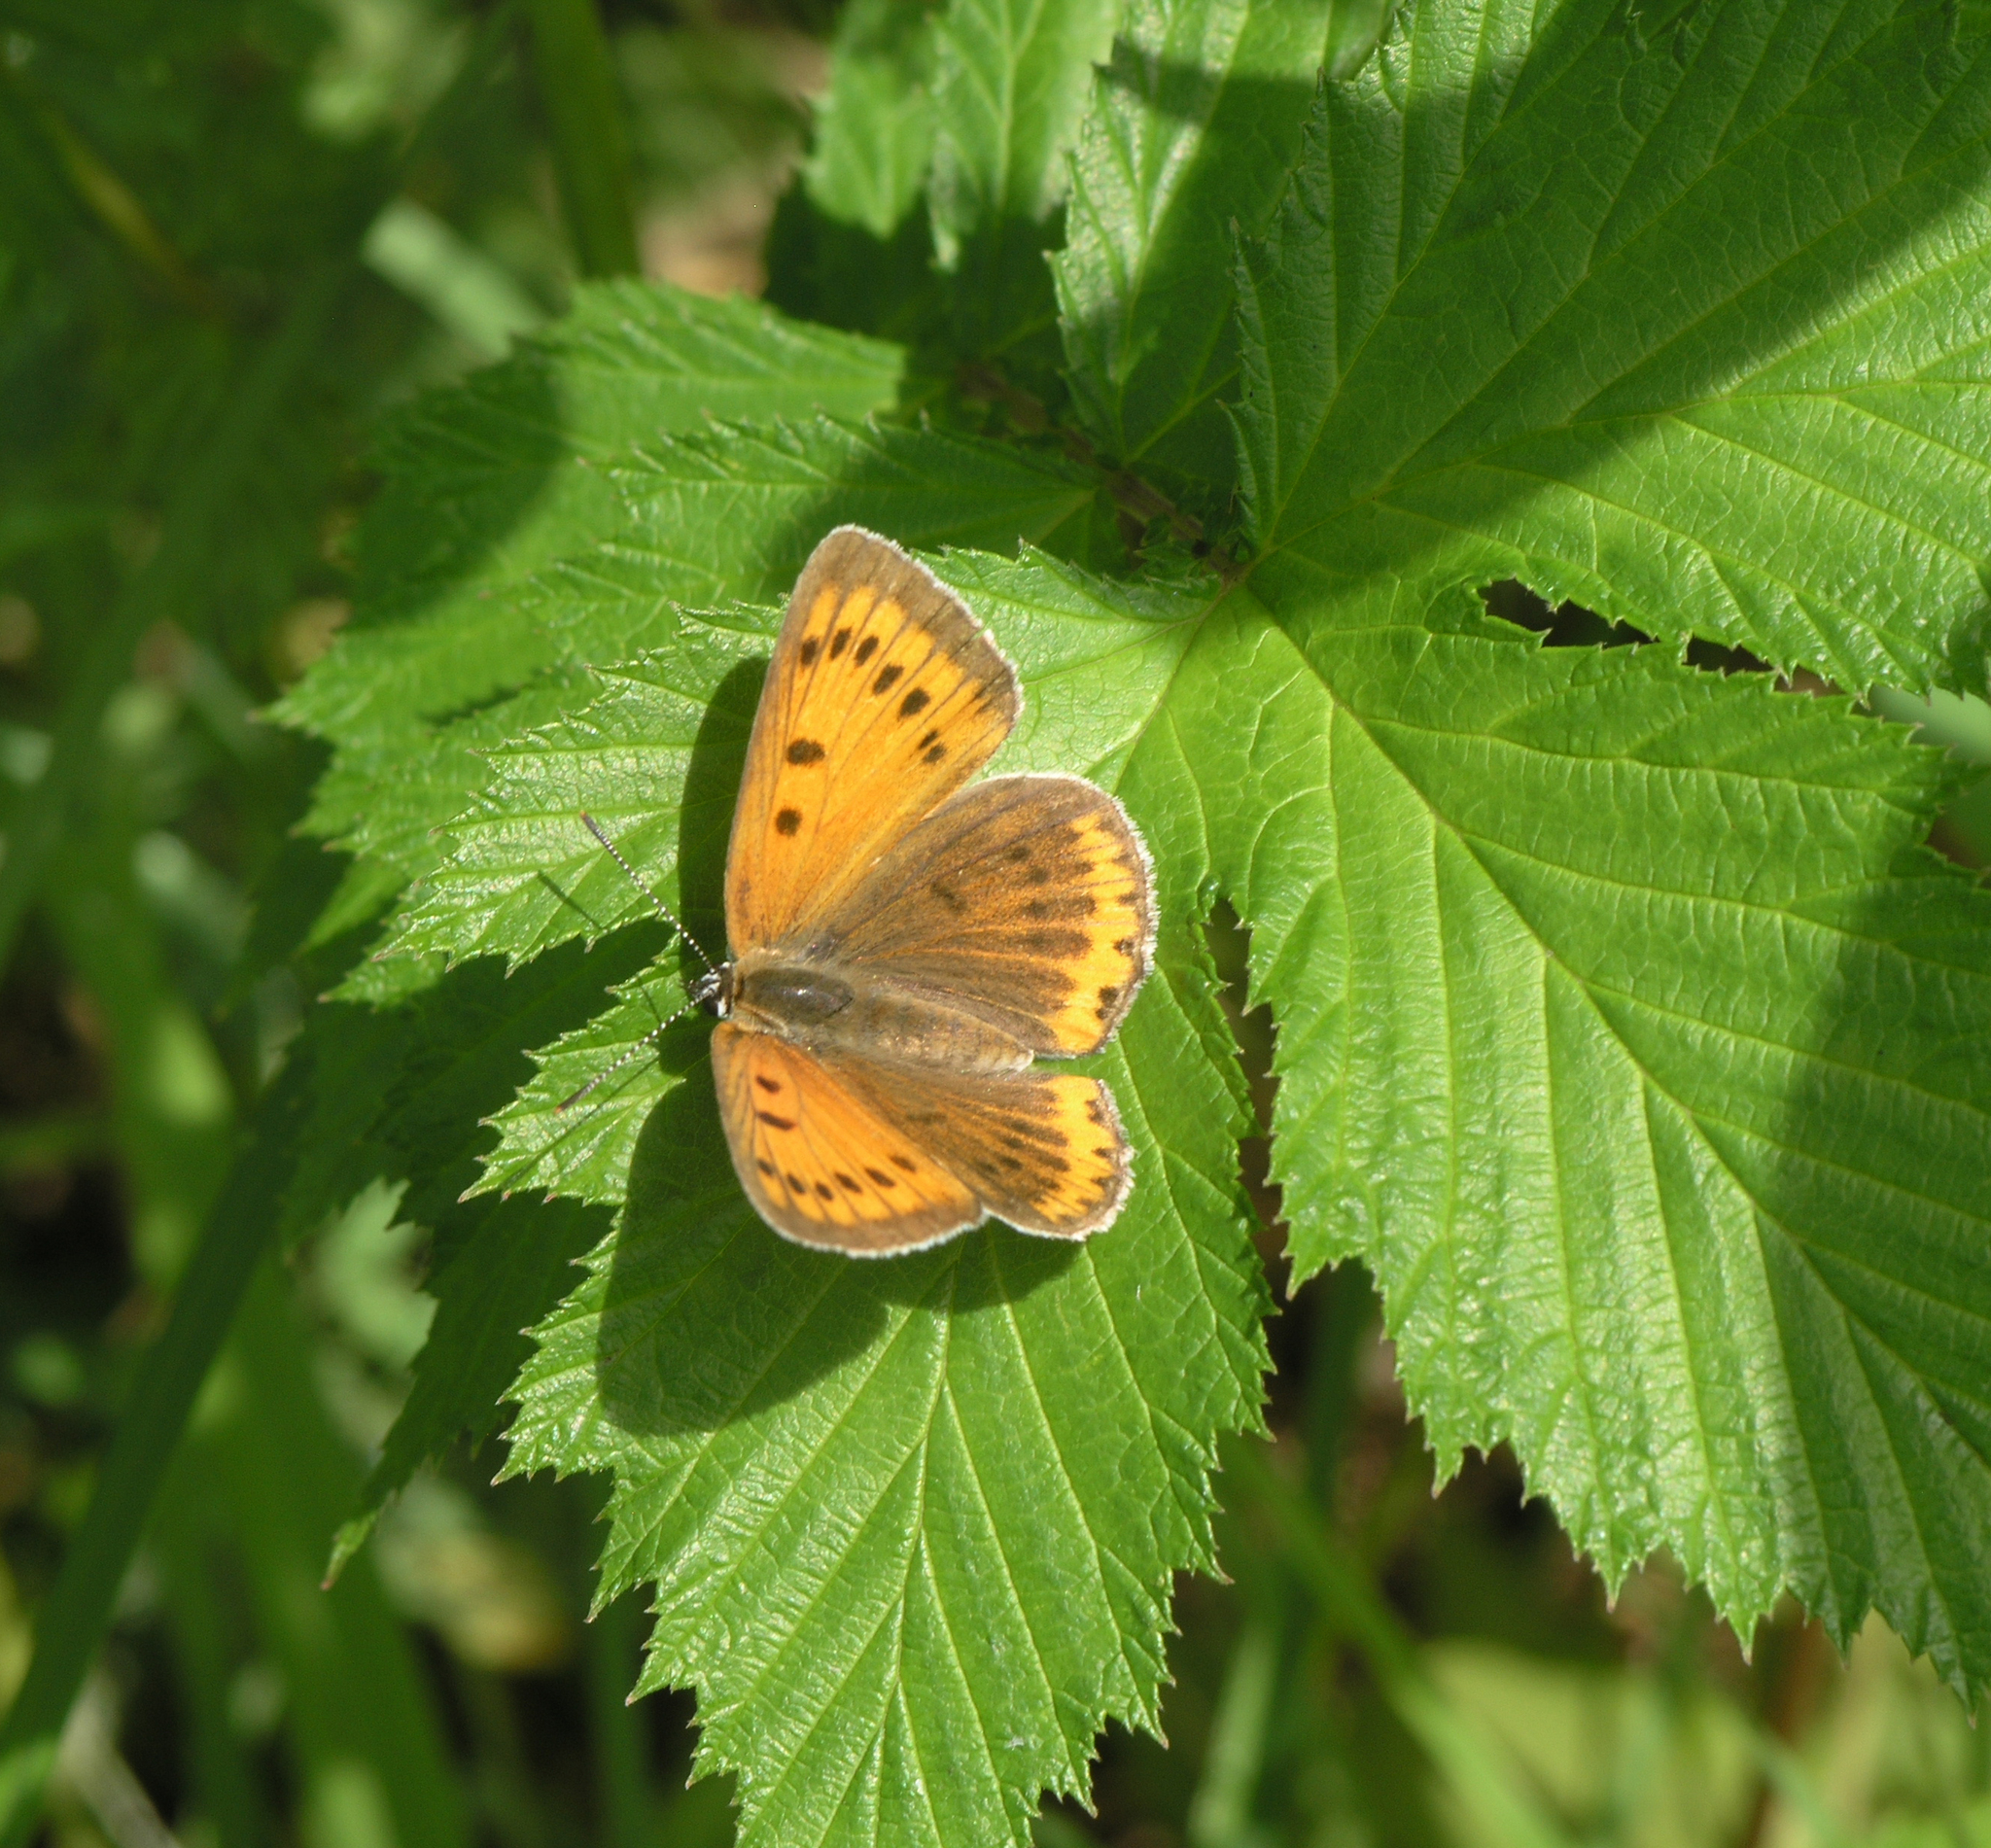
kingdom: Animalia
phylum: Arthropoda
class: Insecta
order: Lepidoptera
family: Lycaenidae
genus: Lycaena
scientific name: Lycaena dispar
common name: Large copper
